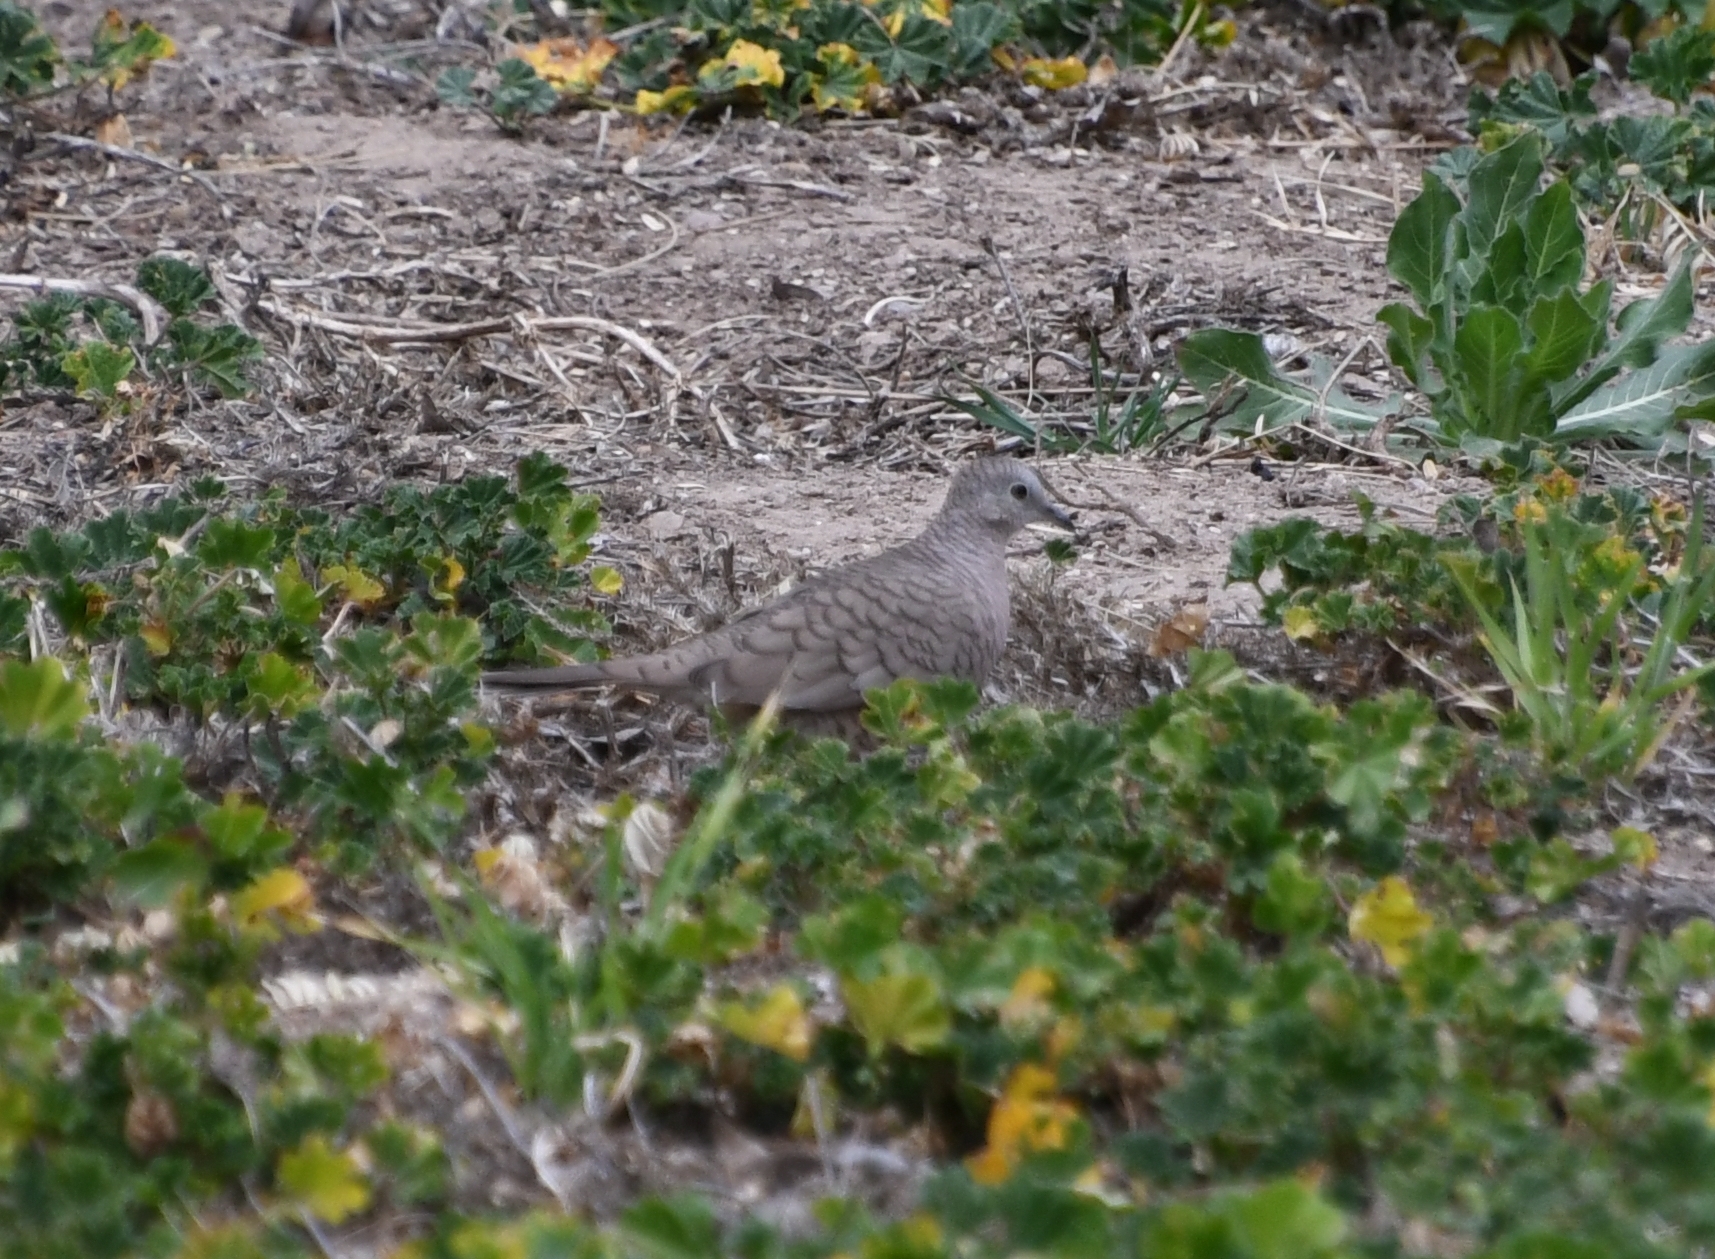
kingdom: Animalia
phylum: Chordata
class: Aves
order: Columbiformes
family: Columbidae
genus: Columbina
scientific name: Columbina inca
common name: Inca dove
